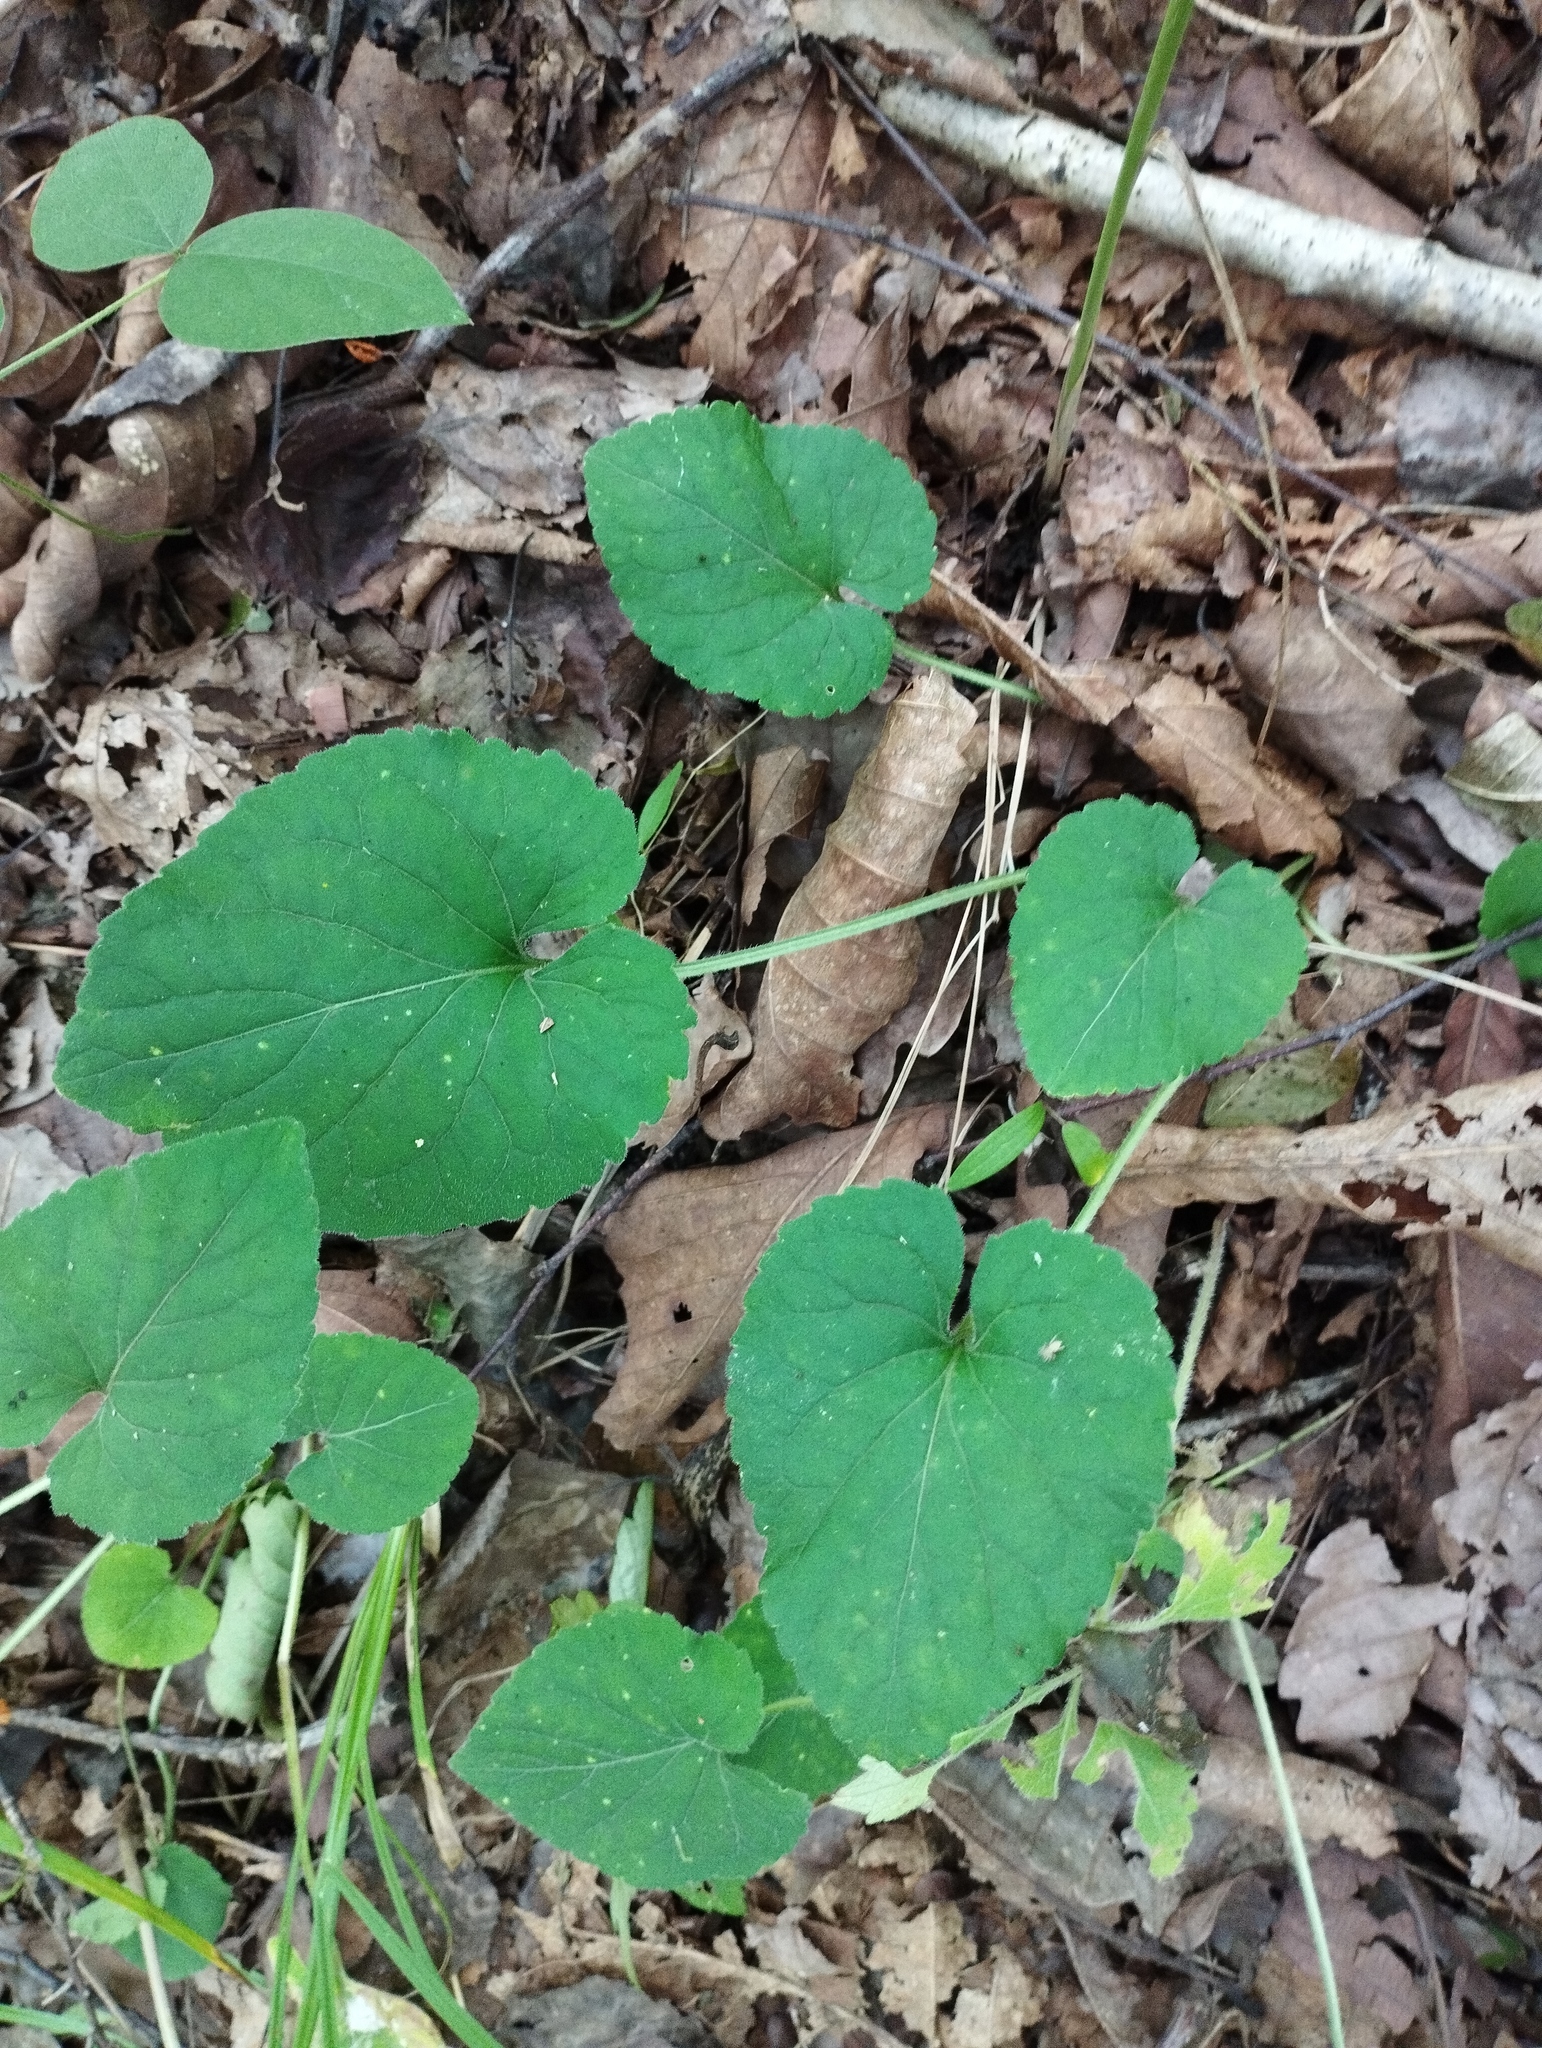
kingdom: Plantae
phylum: Tracheophyta
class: Magnoliopsida
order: Malpighiales
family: Violaceae
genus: Viola
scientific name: Viola collina
